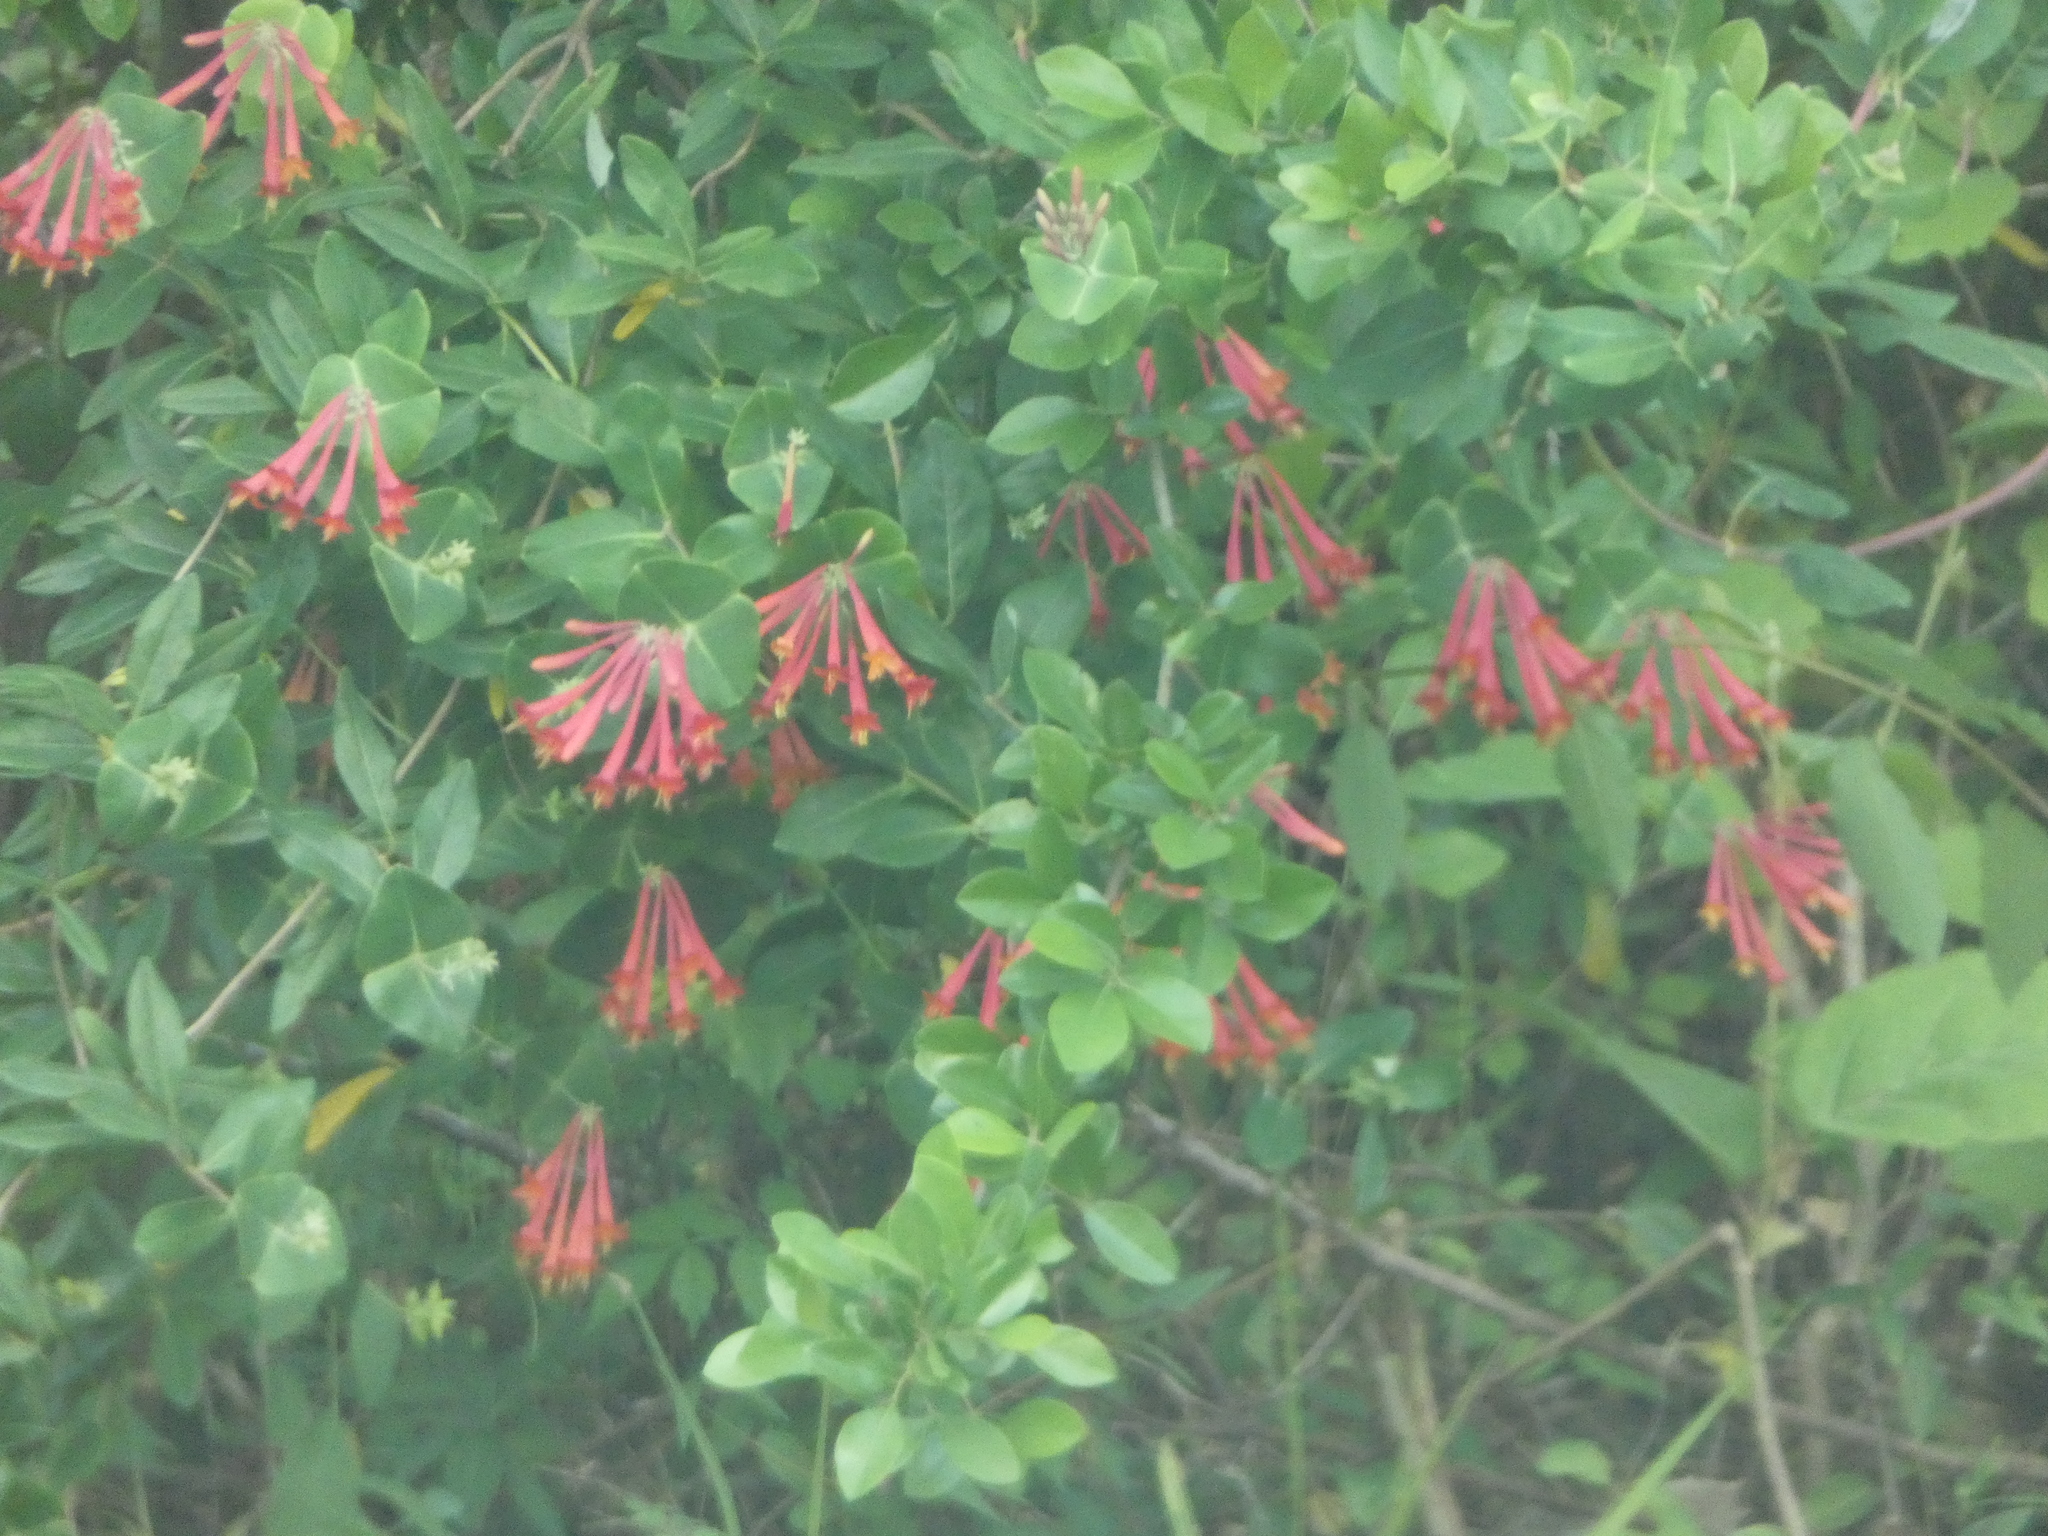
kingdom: Plantae
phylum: Tracheophyta
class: Magnoliopsida
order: Dipsacales
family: Caprifoliaceae
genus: Lonicera
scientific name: Lonicera sempervirens
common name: Coral honeysuckle
